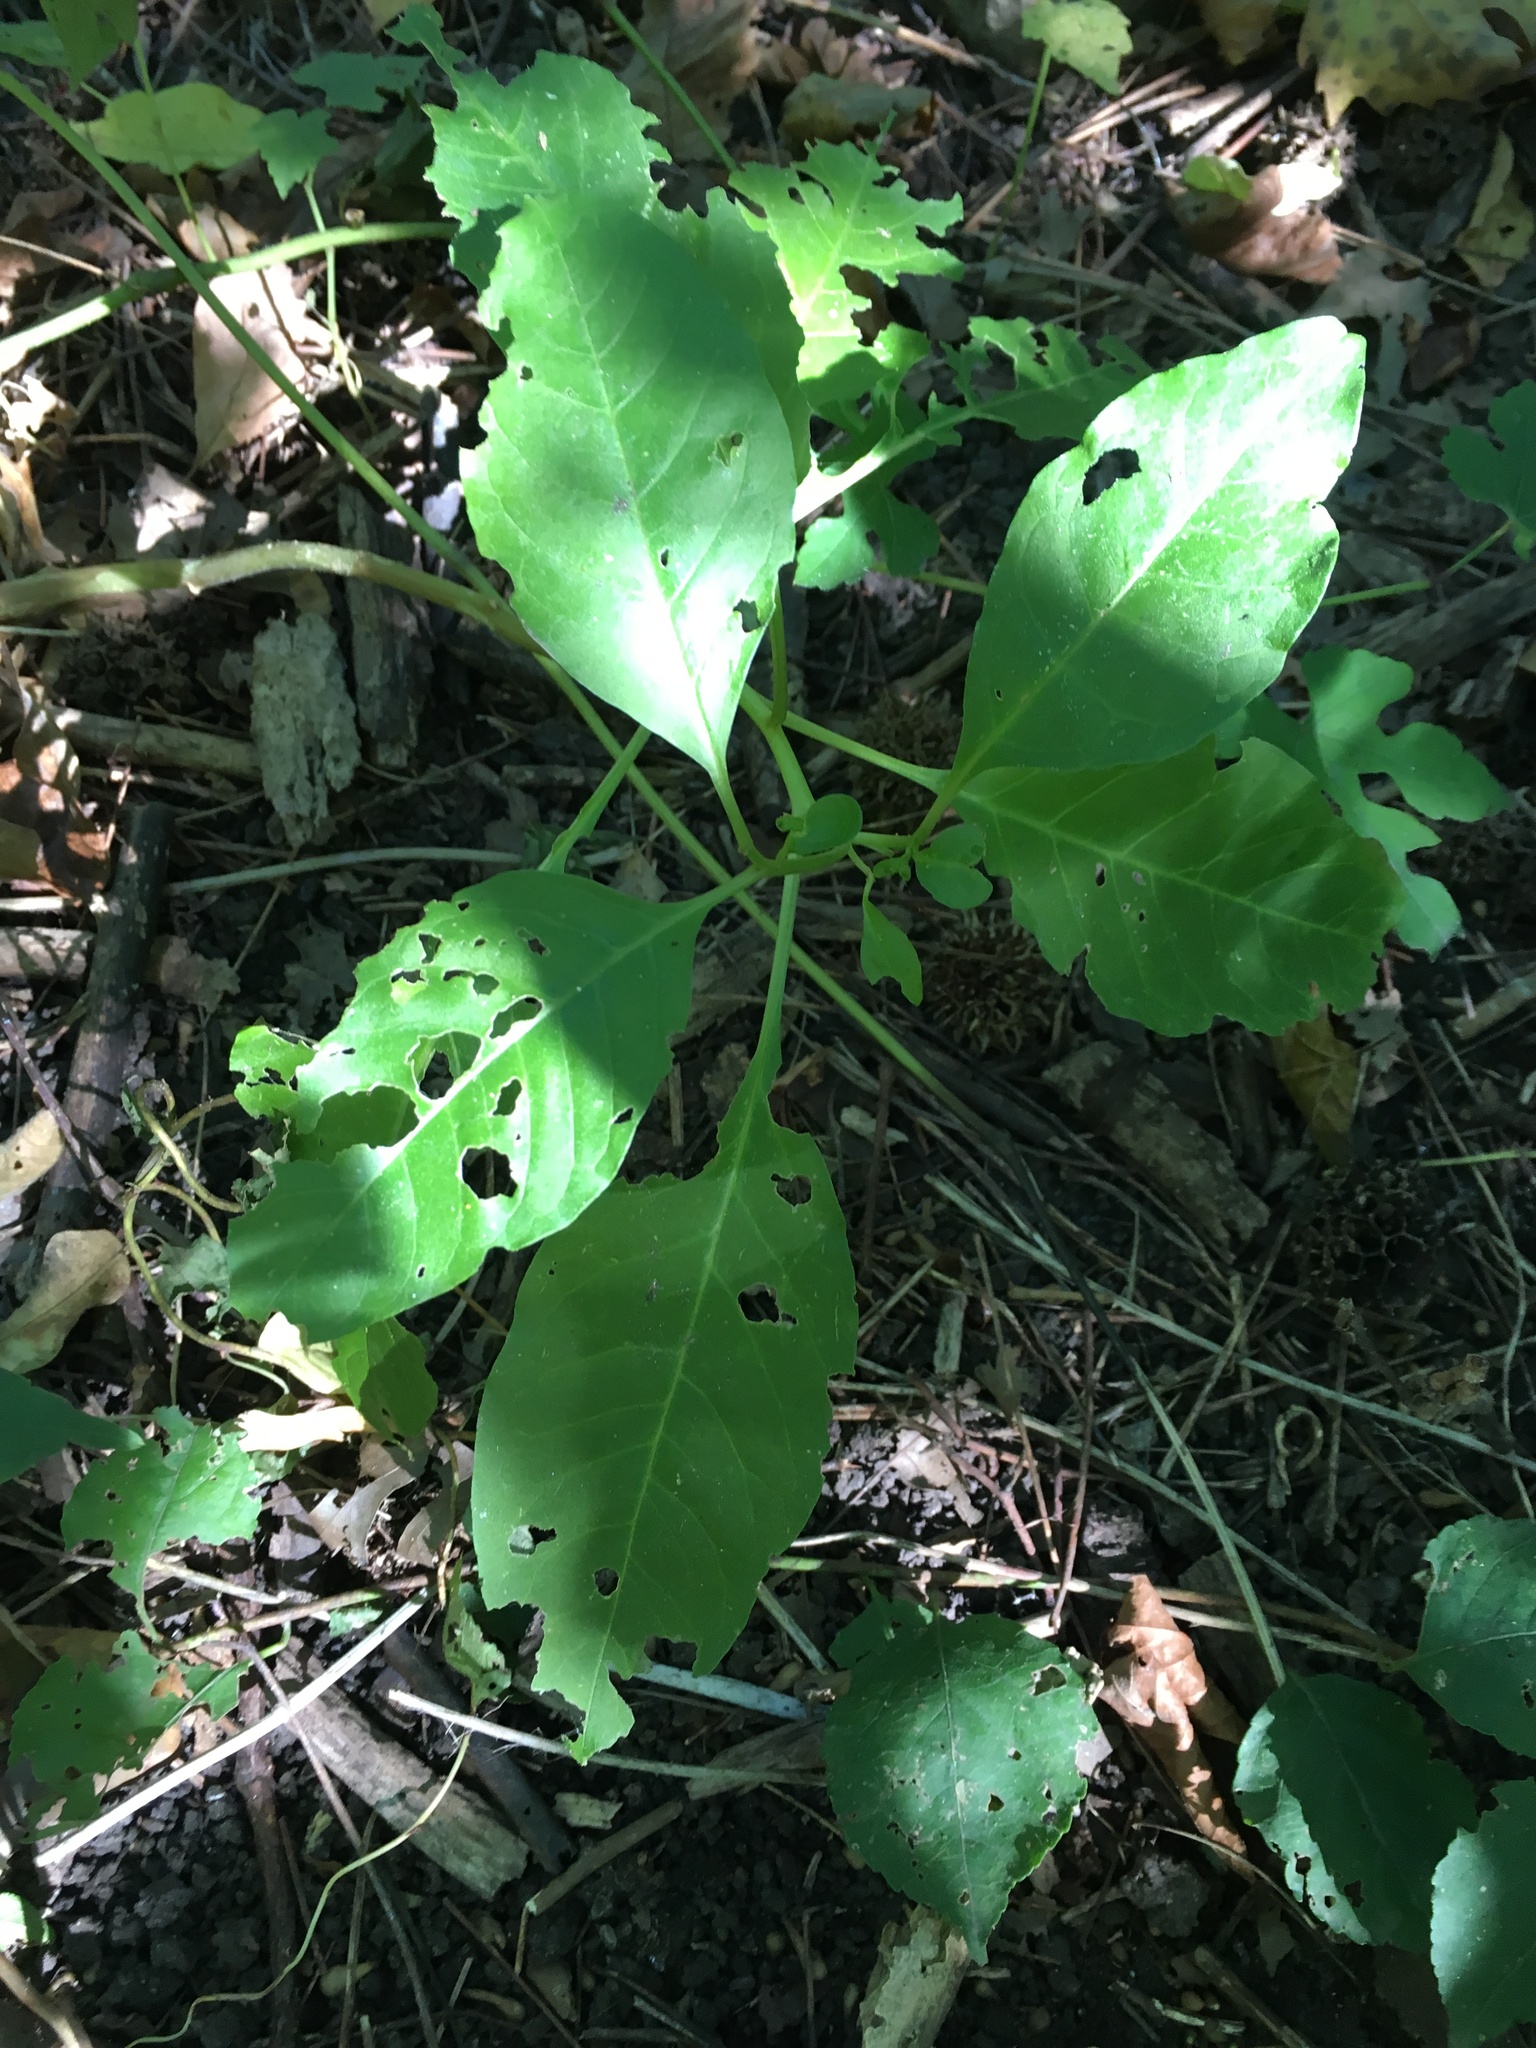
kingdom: Plantae
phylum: Tracheophyta
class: Magnoliopsida
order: Caryophyllales
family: Phytolaccaceae
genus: Phytolacca
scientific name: Phytolacca americana
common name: American pokeweed
